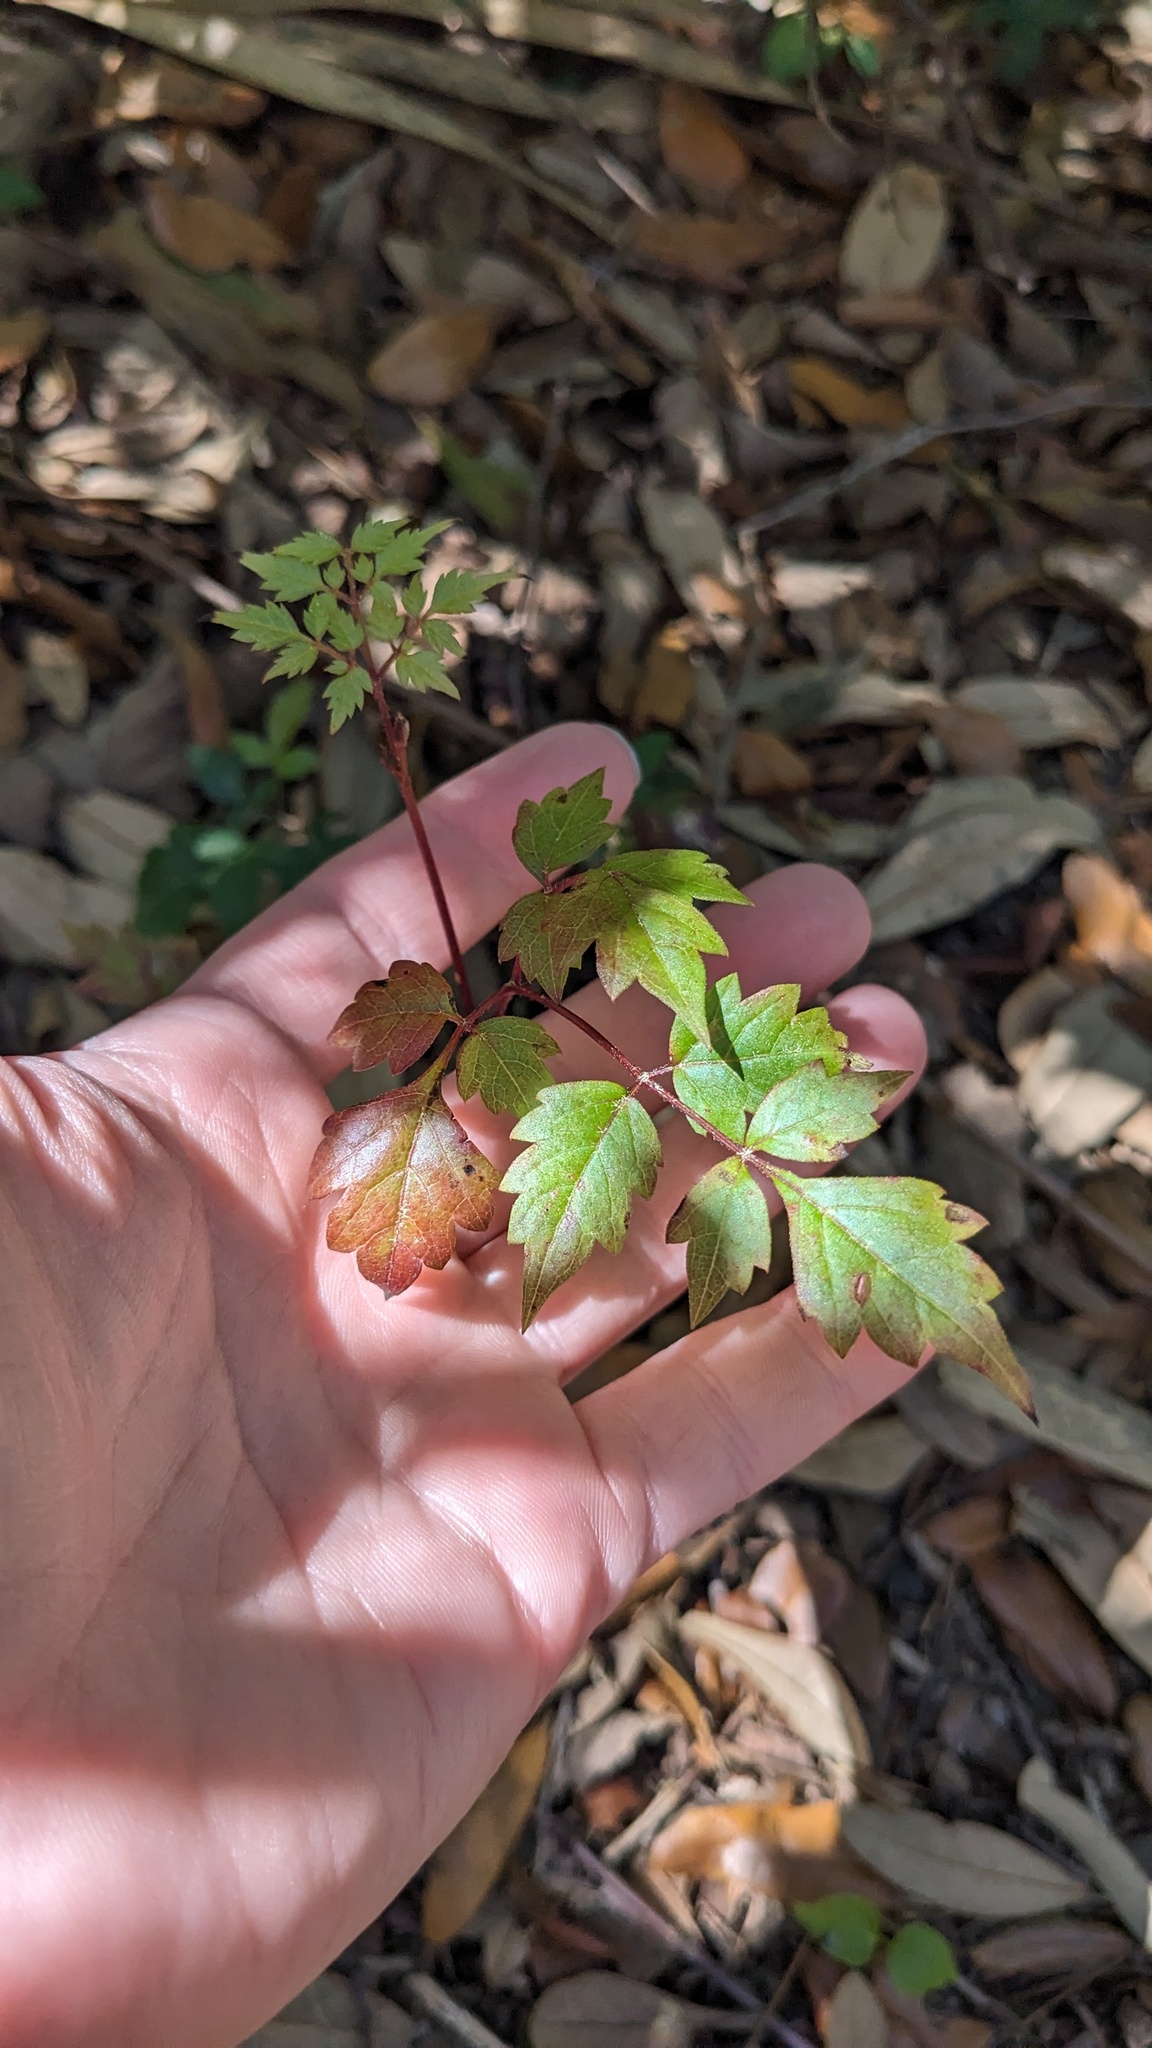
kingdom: Plantae
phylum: Tracheophyta
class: Magnoliopsida
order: Vitales
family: Vitaceae
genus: Nekemias
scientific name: Nekemias arborea
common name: Peppervine
